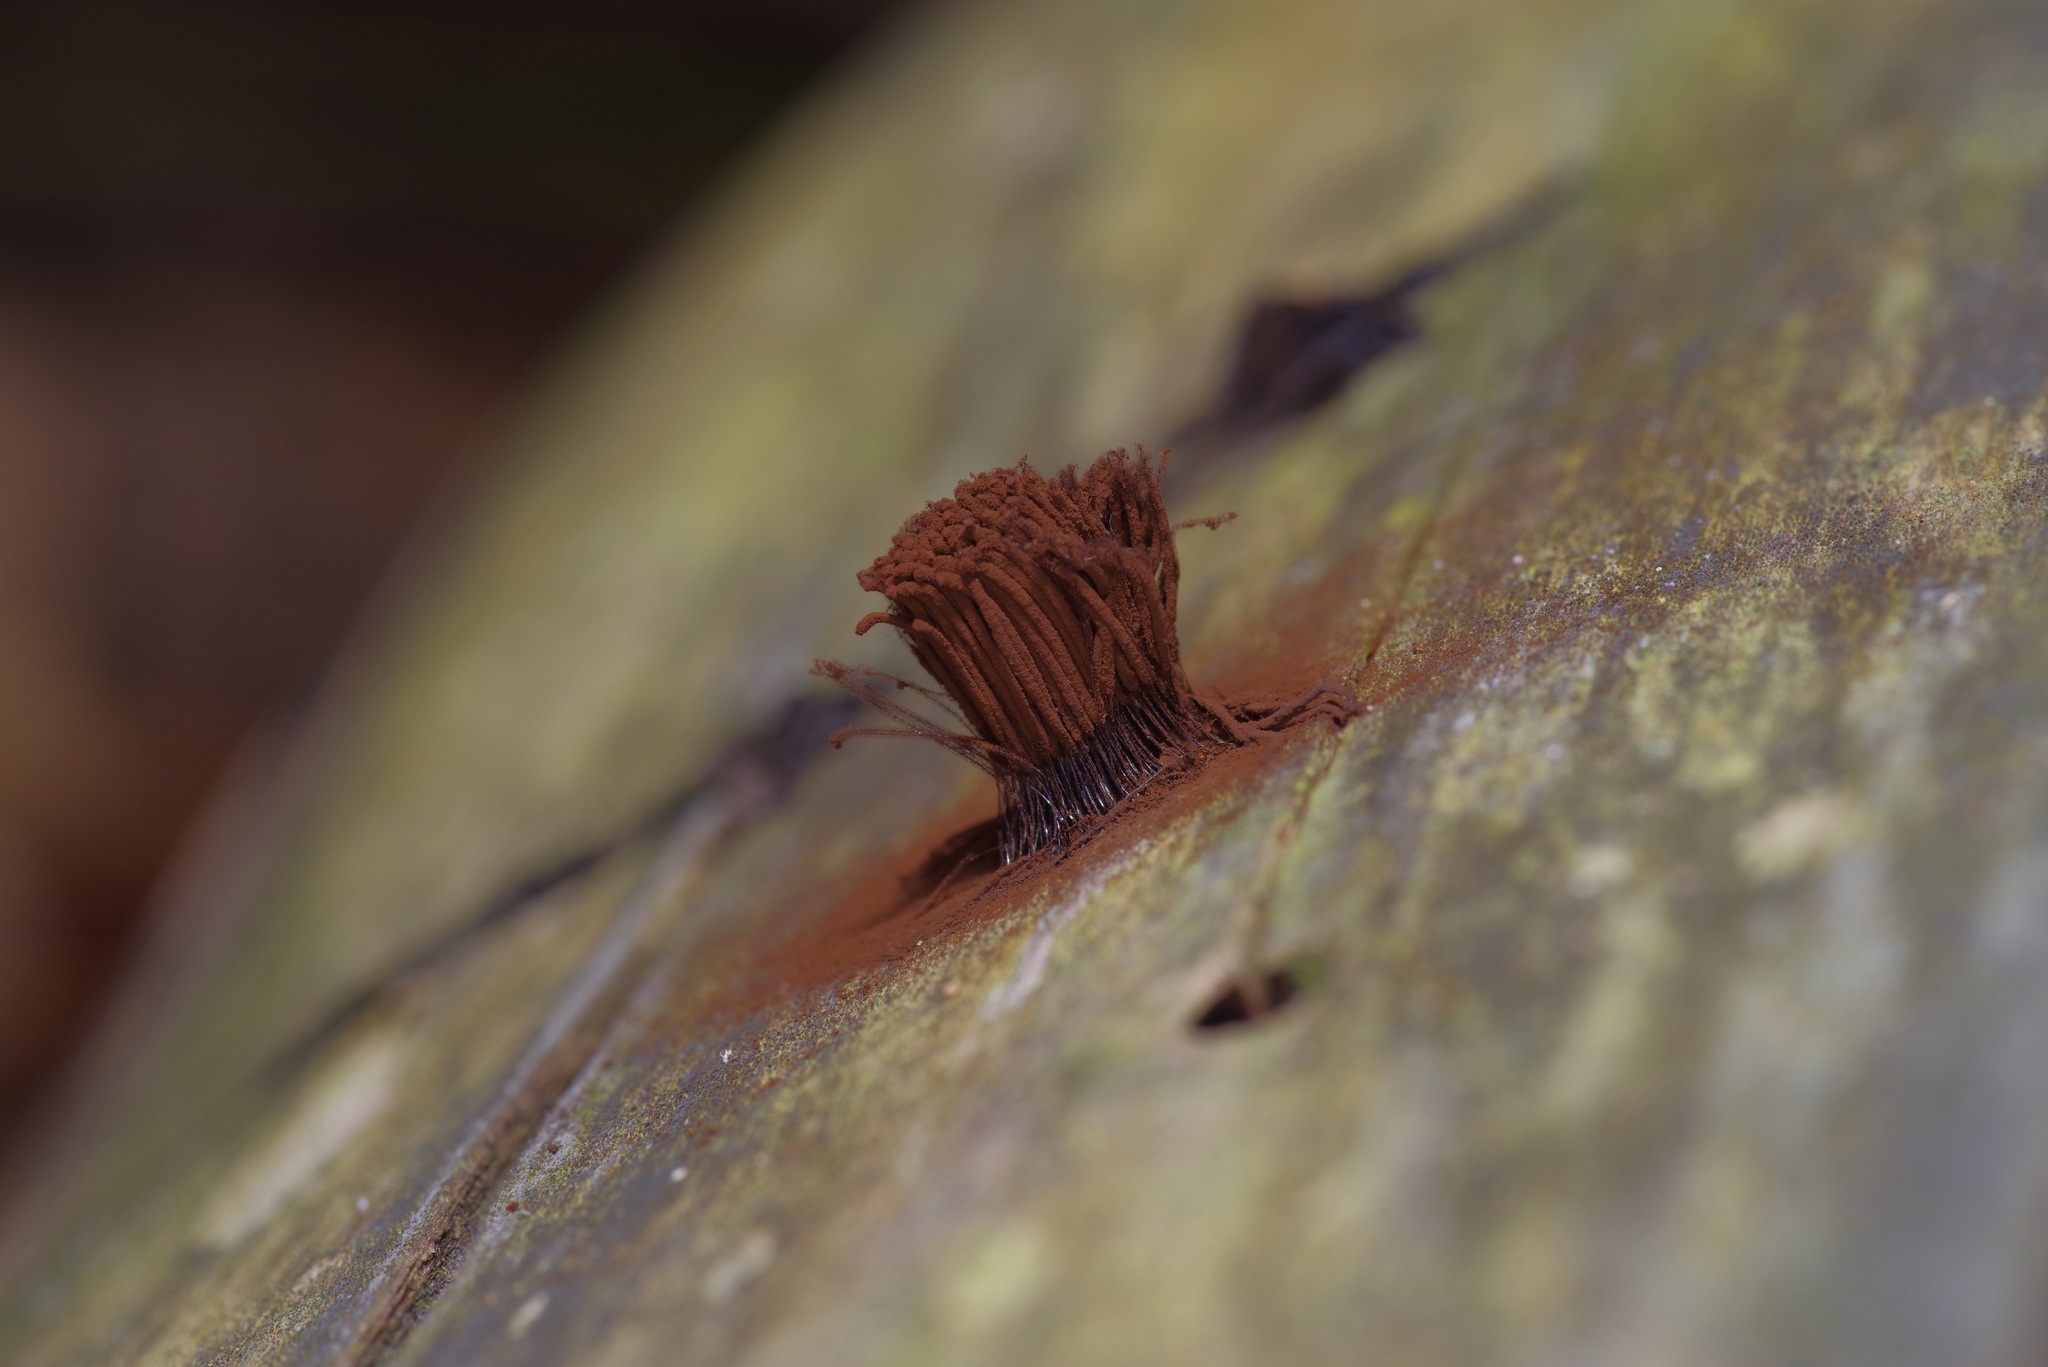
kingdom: Protozoa
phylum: Mycetozoa
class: Myxomycetes
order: Stemonitidales
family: Stemonitidaceae
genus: Stemonitis
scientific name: Stemonitis splendens
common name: Chocolate tube slime
